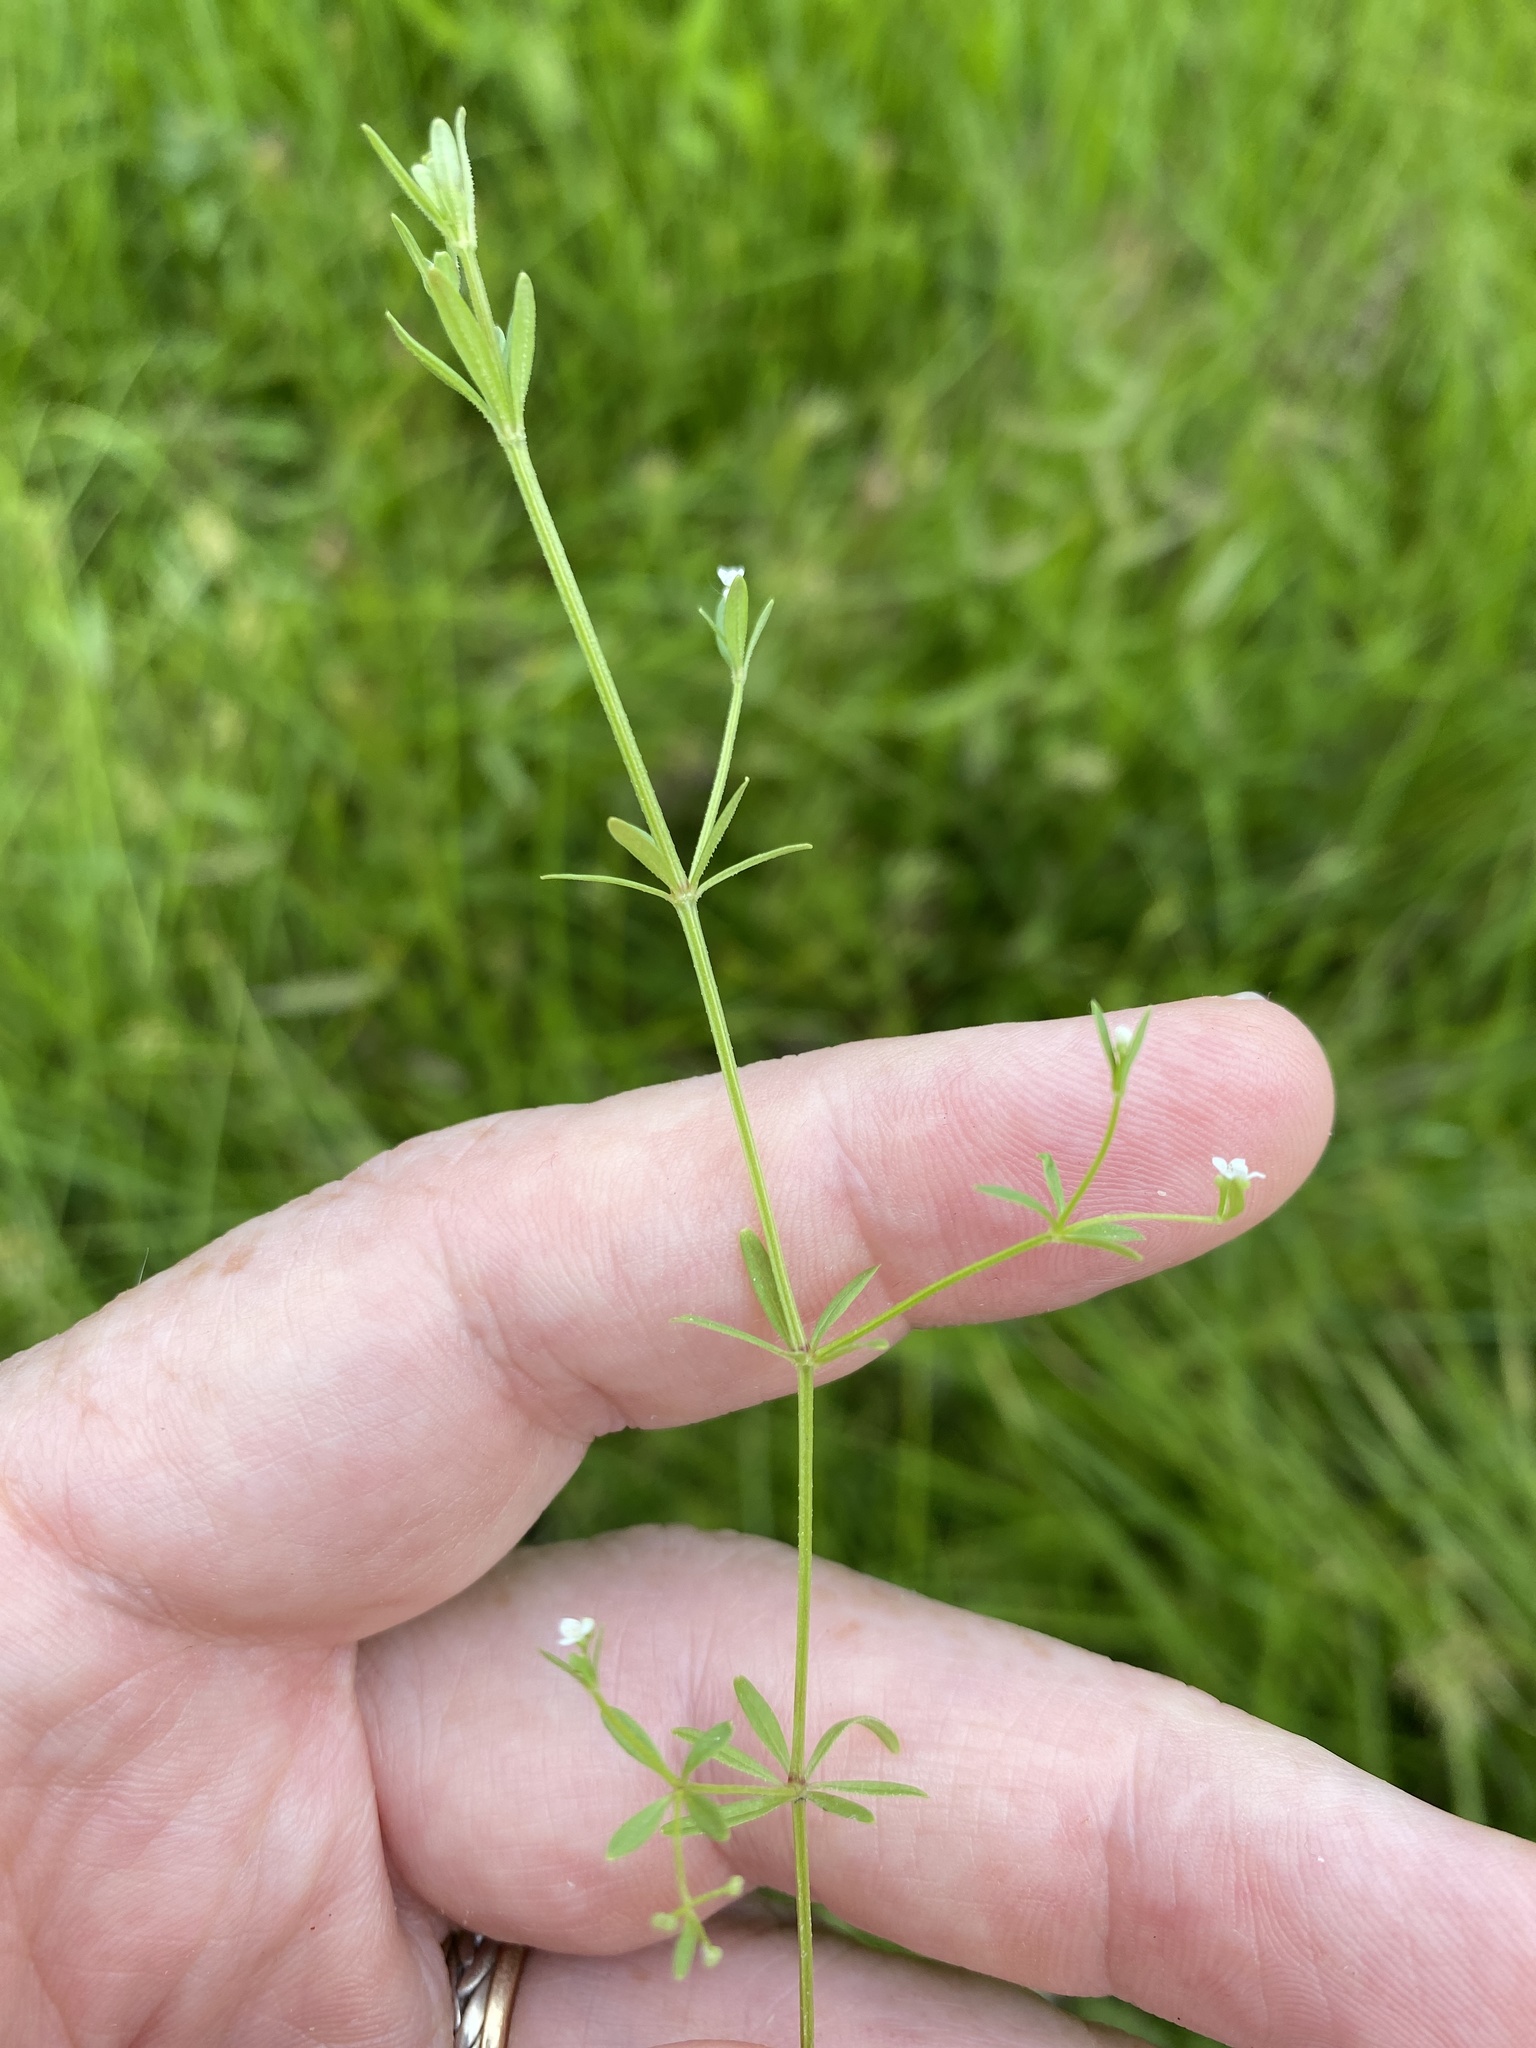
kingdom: Plantae
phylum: Tracheophyta
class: Magnoliopsida
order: Gentianales
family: Rubiaceae
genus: Galium
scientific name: Galium tinctorium
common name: Bedstraw
